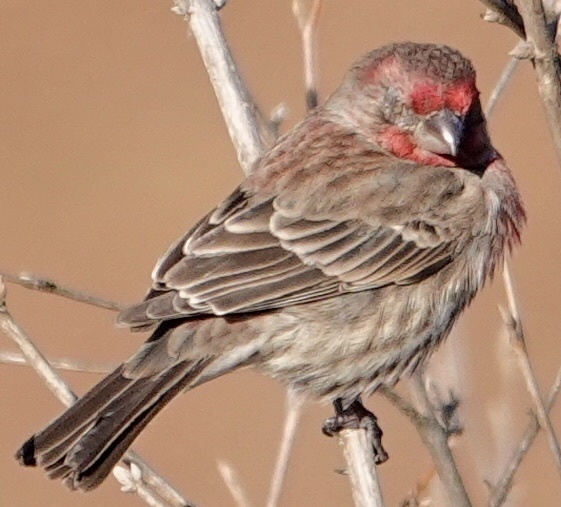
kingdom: Animalia
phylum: Chordata
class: Aves
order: Passeriformes
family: Fringillidae
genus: Haemorhous
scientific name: Haemorhous mexicanus
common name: House finch
